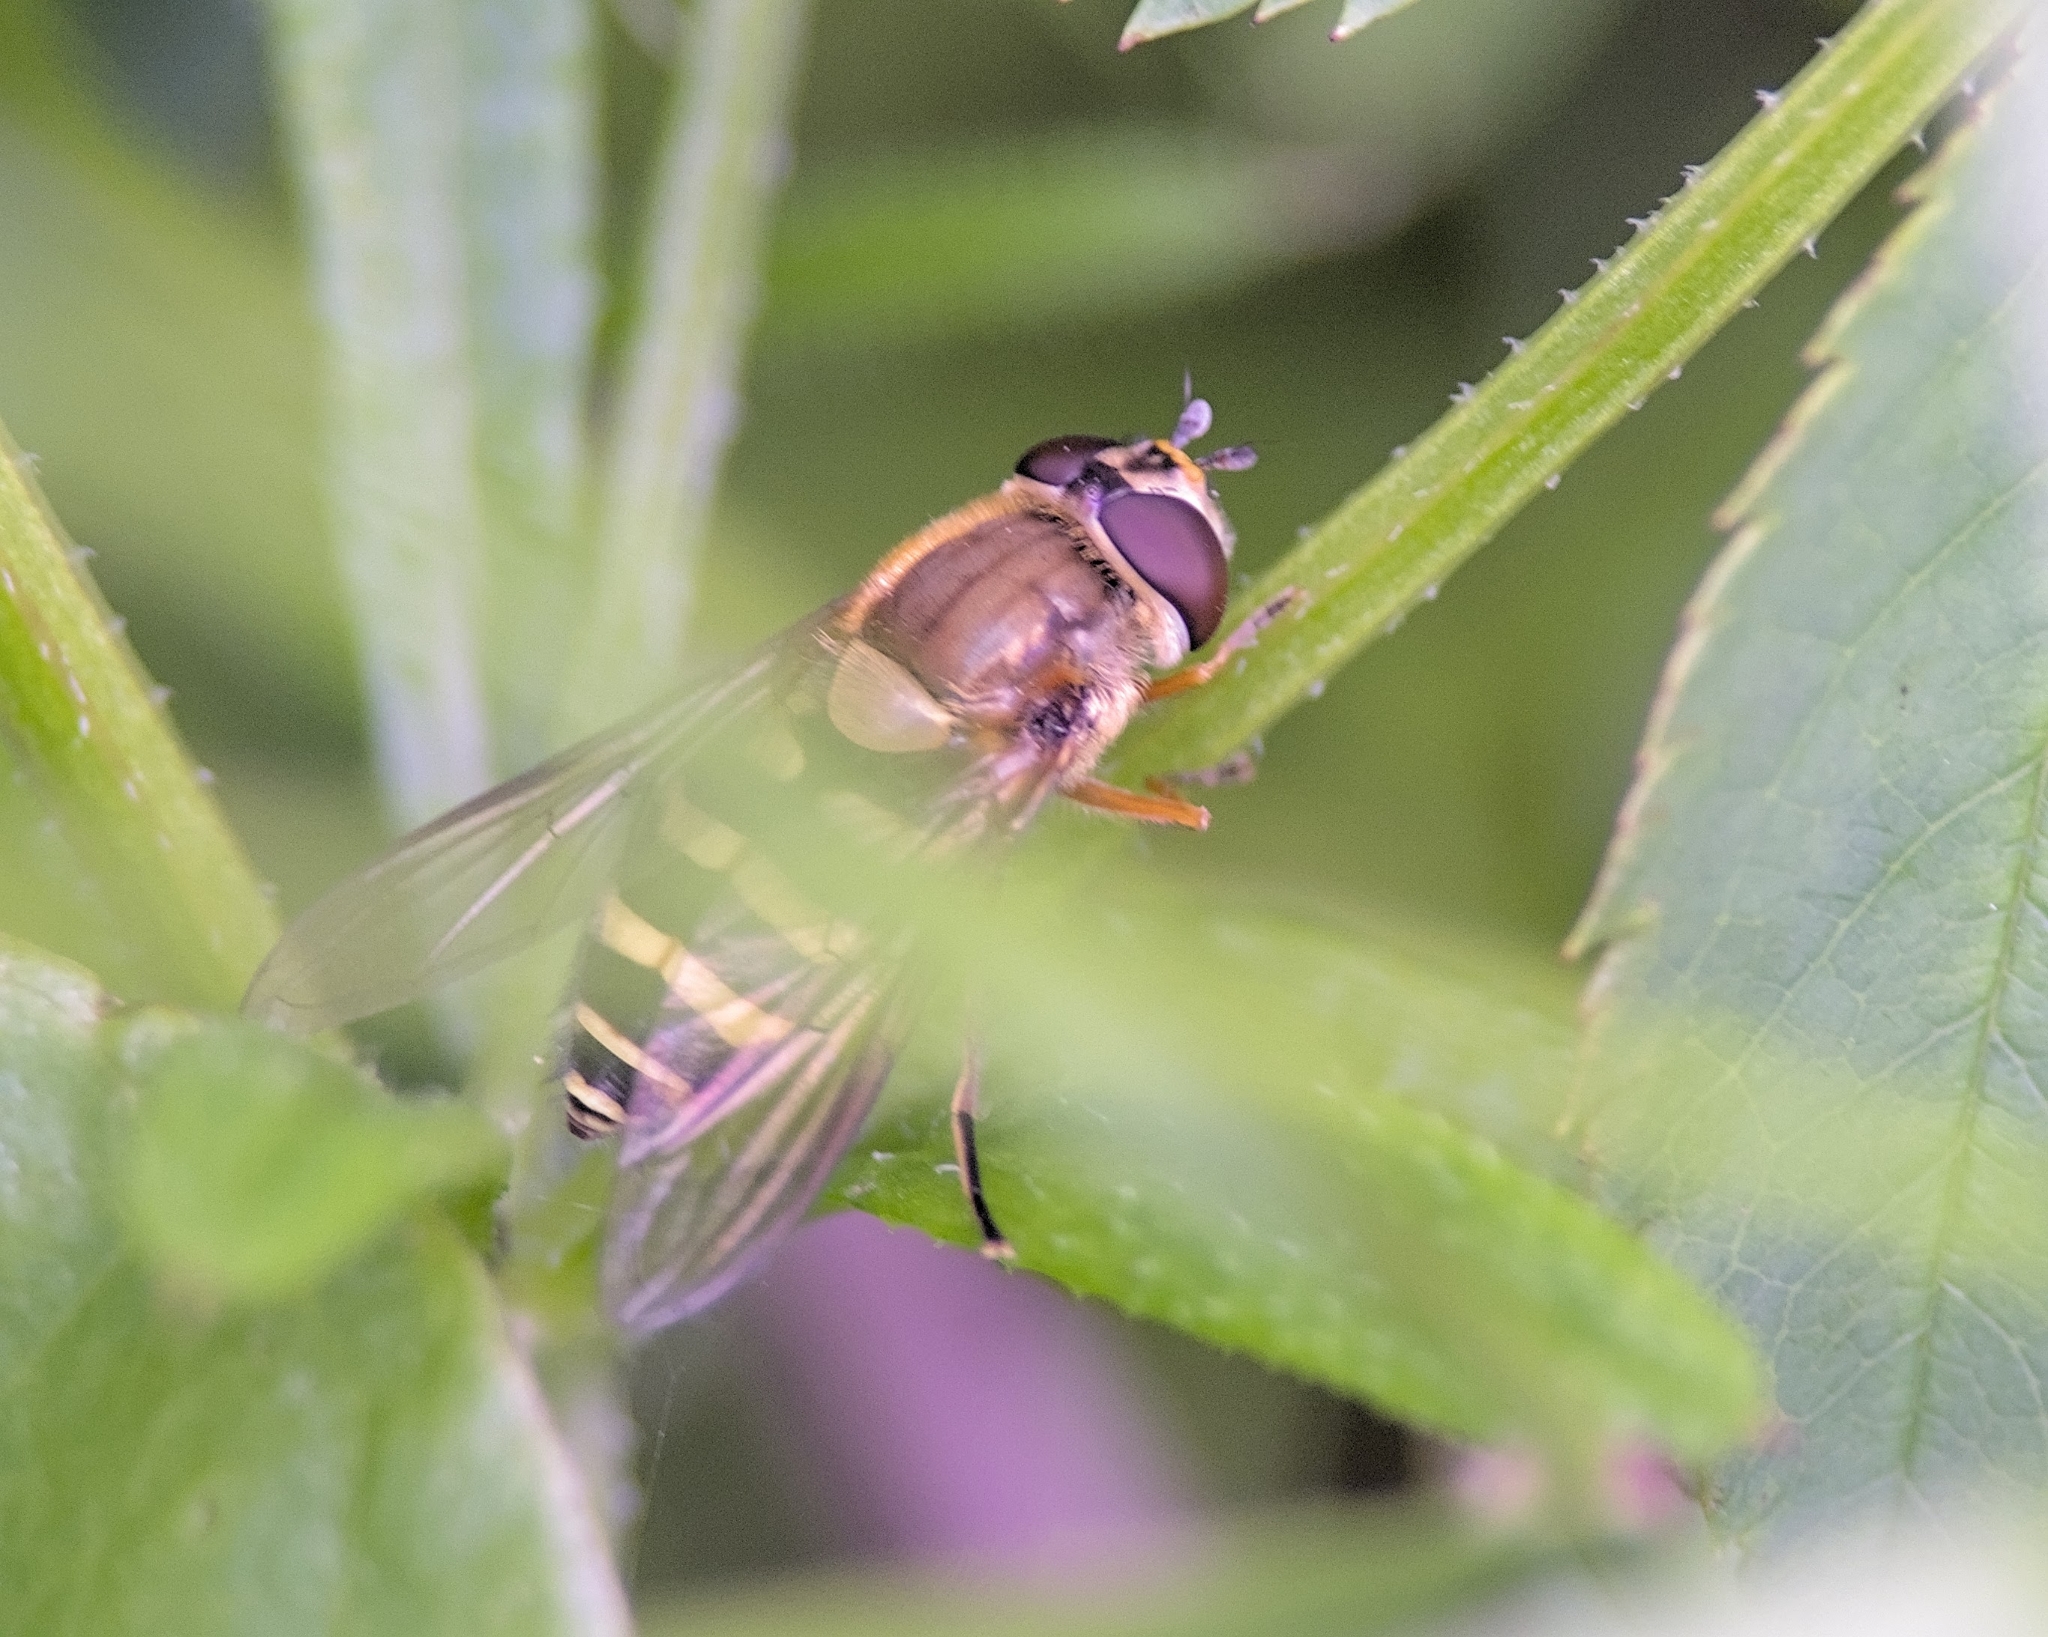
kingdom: Animalia
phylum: Arthropoda
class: Insecta
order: Diptera
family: Syrphidae
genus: Syrphus
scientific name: Syrphus
